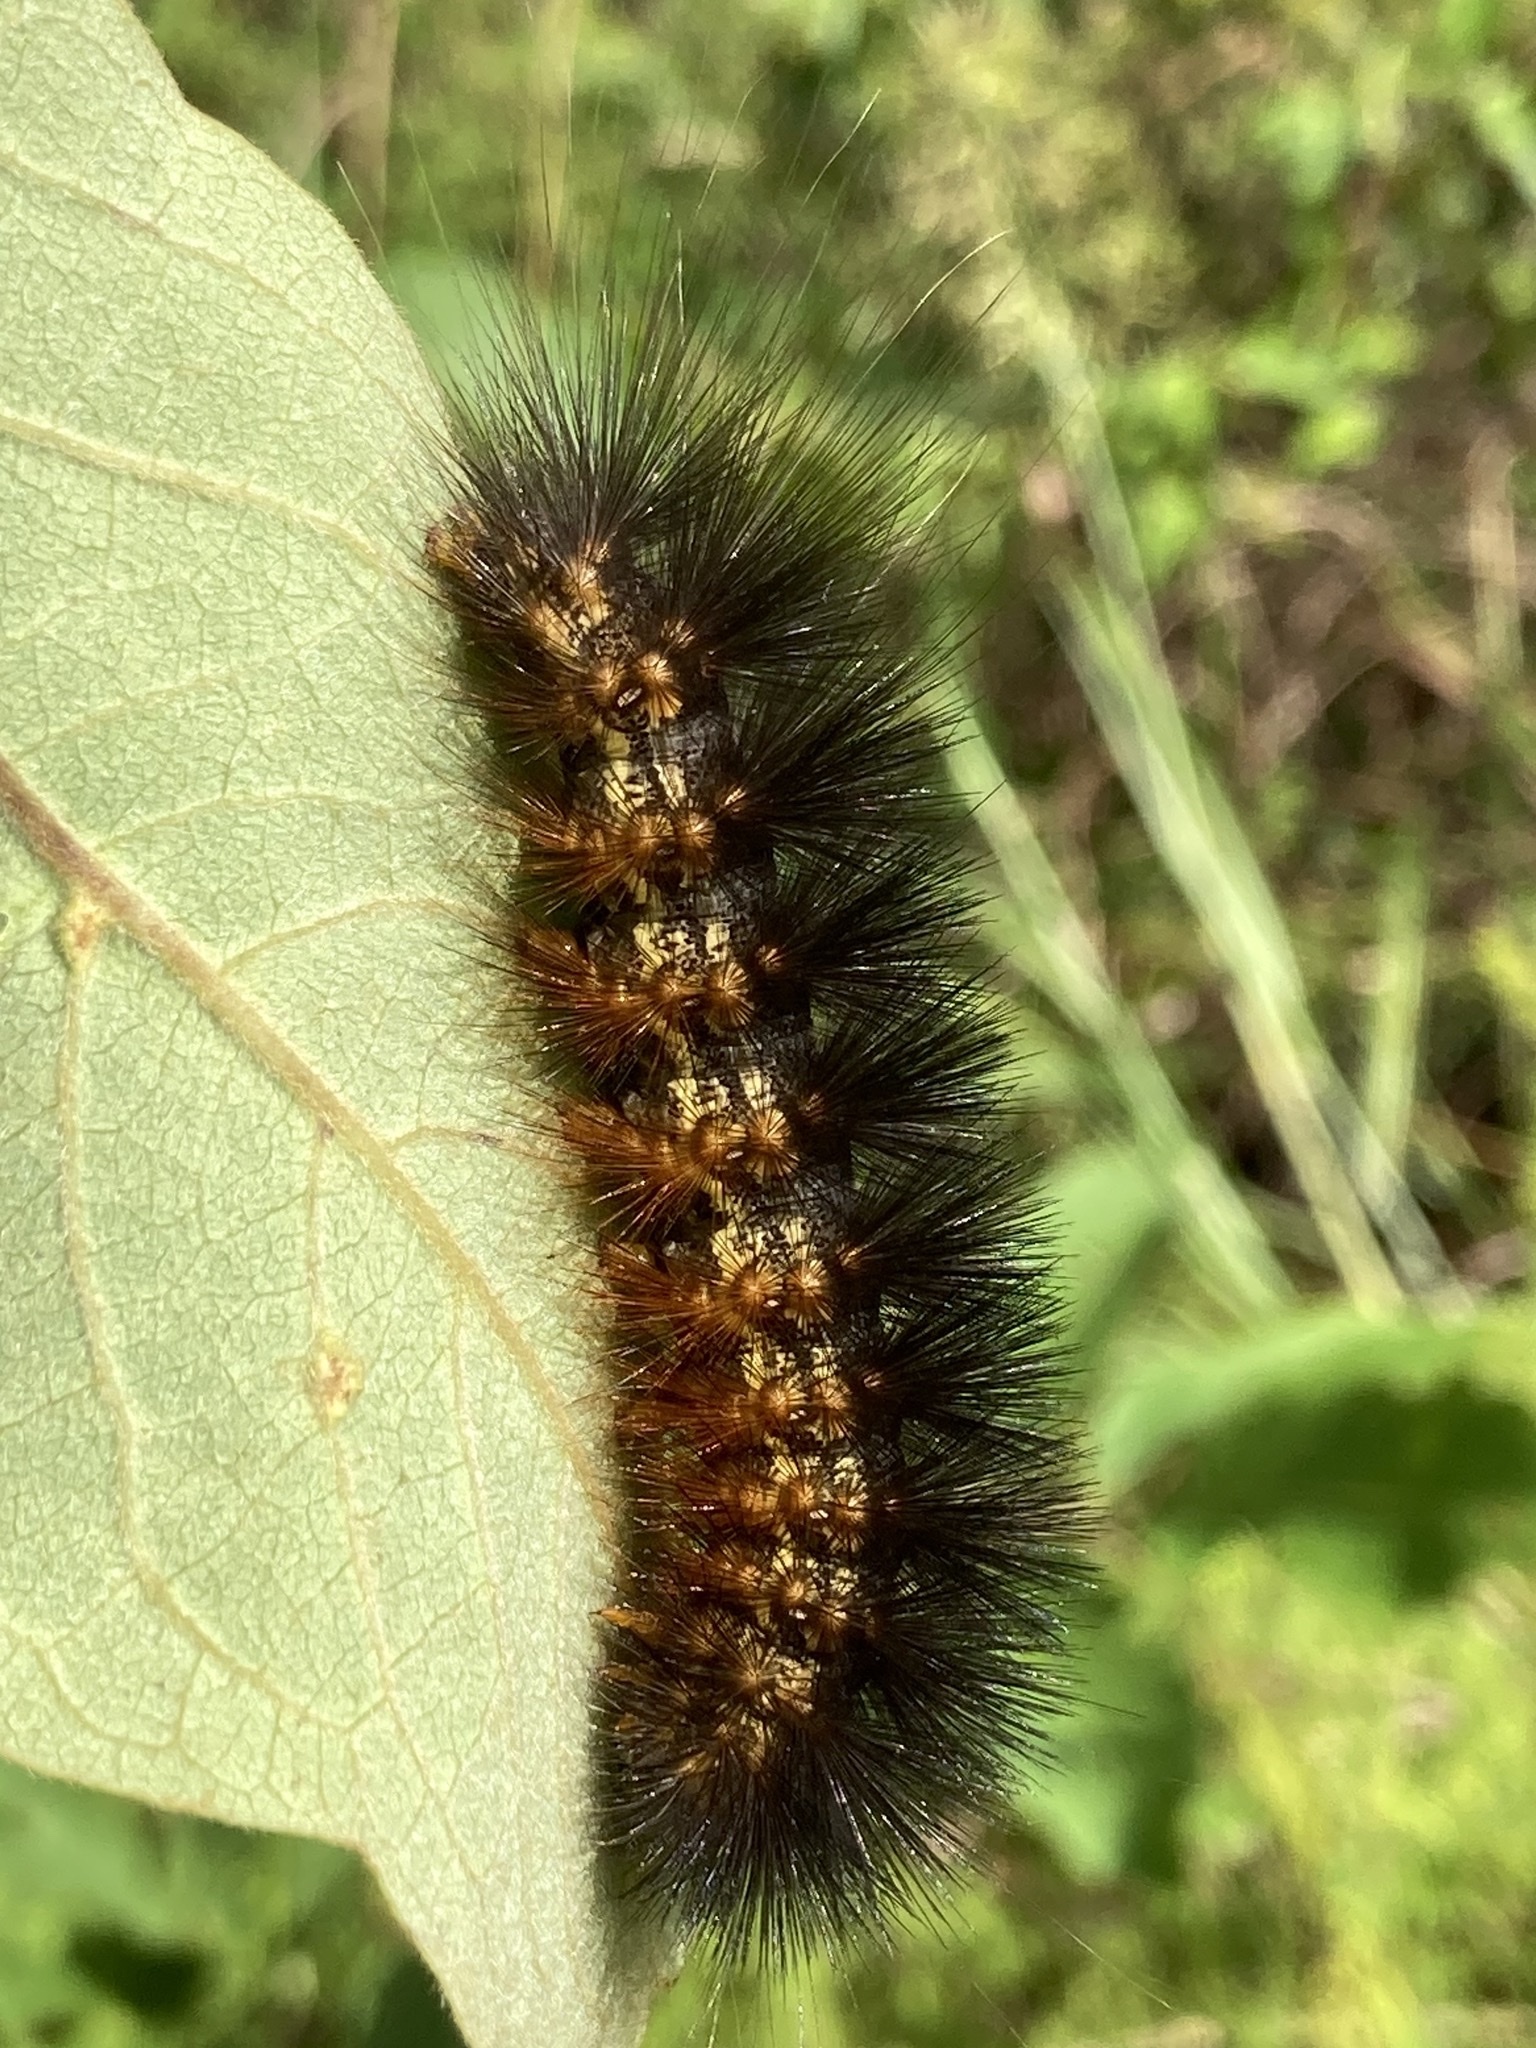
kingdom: Animalia
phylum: Arthropoda
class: Insecta
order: Lepidoptera
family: Erebidae
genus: Estigmene
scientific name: Estigmene acrea
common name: Salt marsh moth
